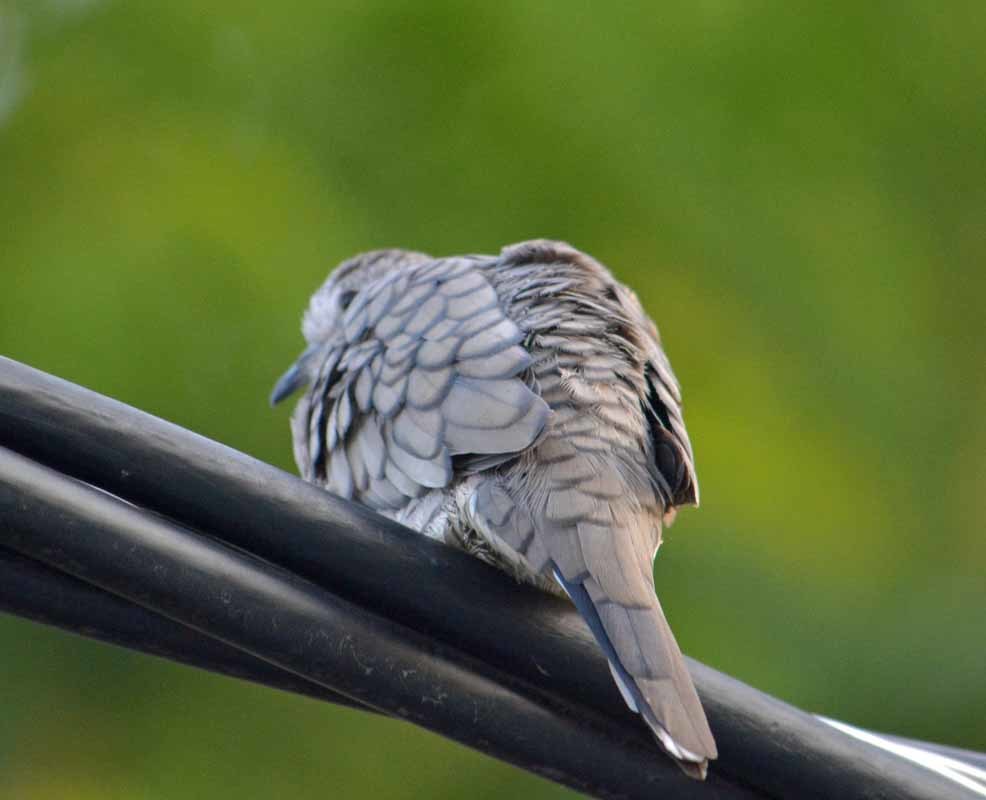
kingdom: Animalia
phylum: Chordata
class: Aves
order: Columbiformes
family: Columbidae
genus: Columbina
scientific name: Columbina inca
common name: Inca dove
